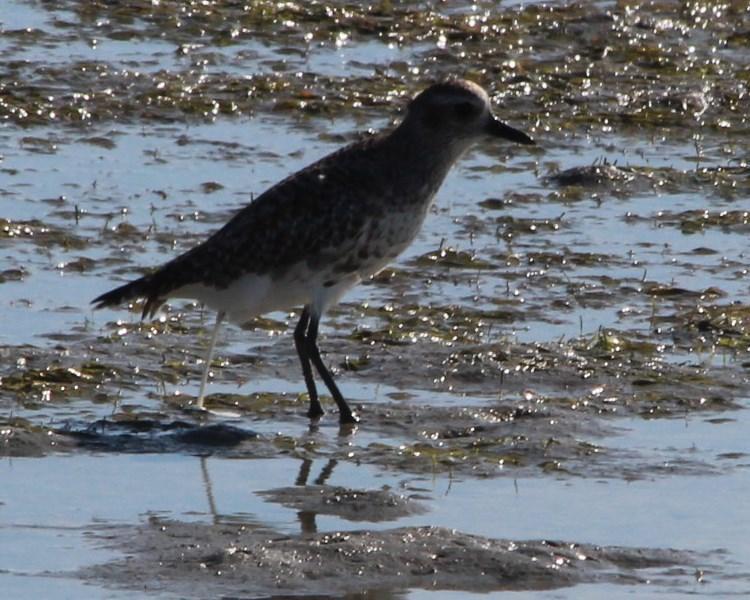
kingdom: Animalia
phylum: Chordata
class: Aves
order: Charadriiformes
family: Charadriidae
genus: Pluvialis
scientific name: Pluvialis squatarola
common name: Grey plover
